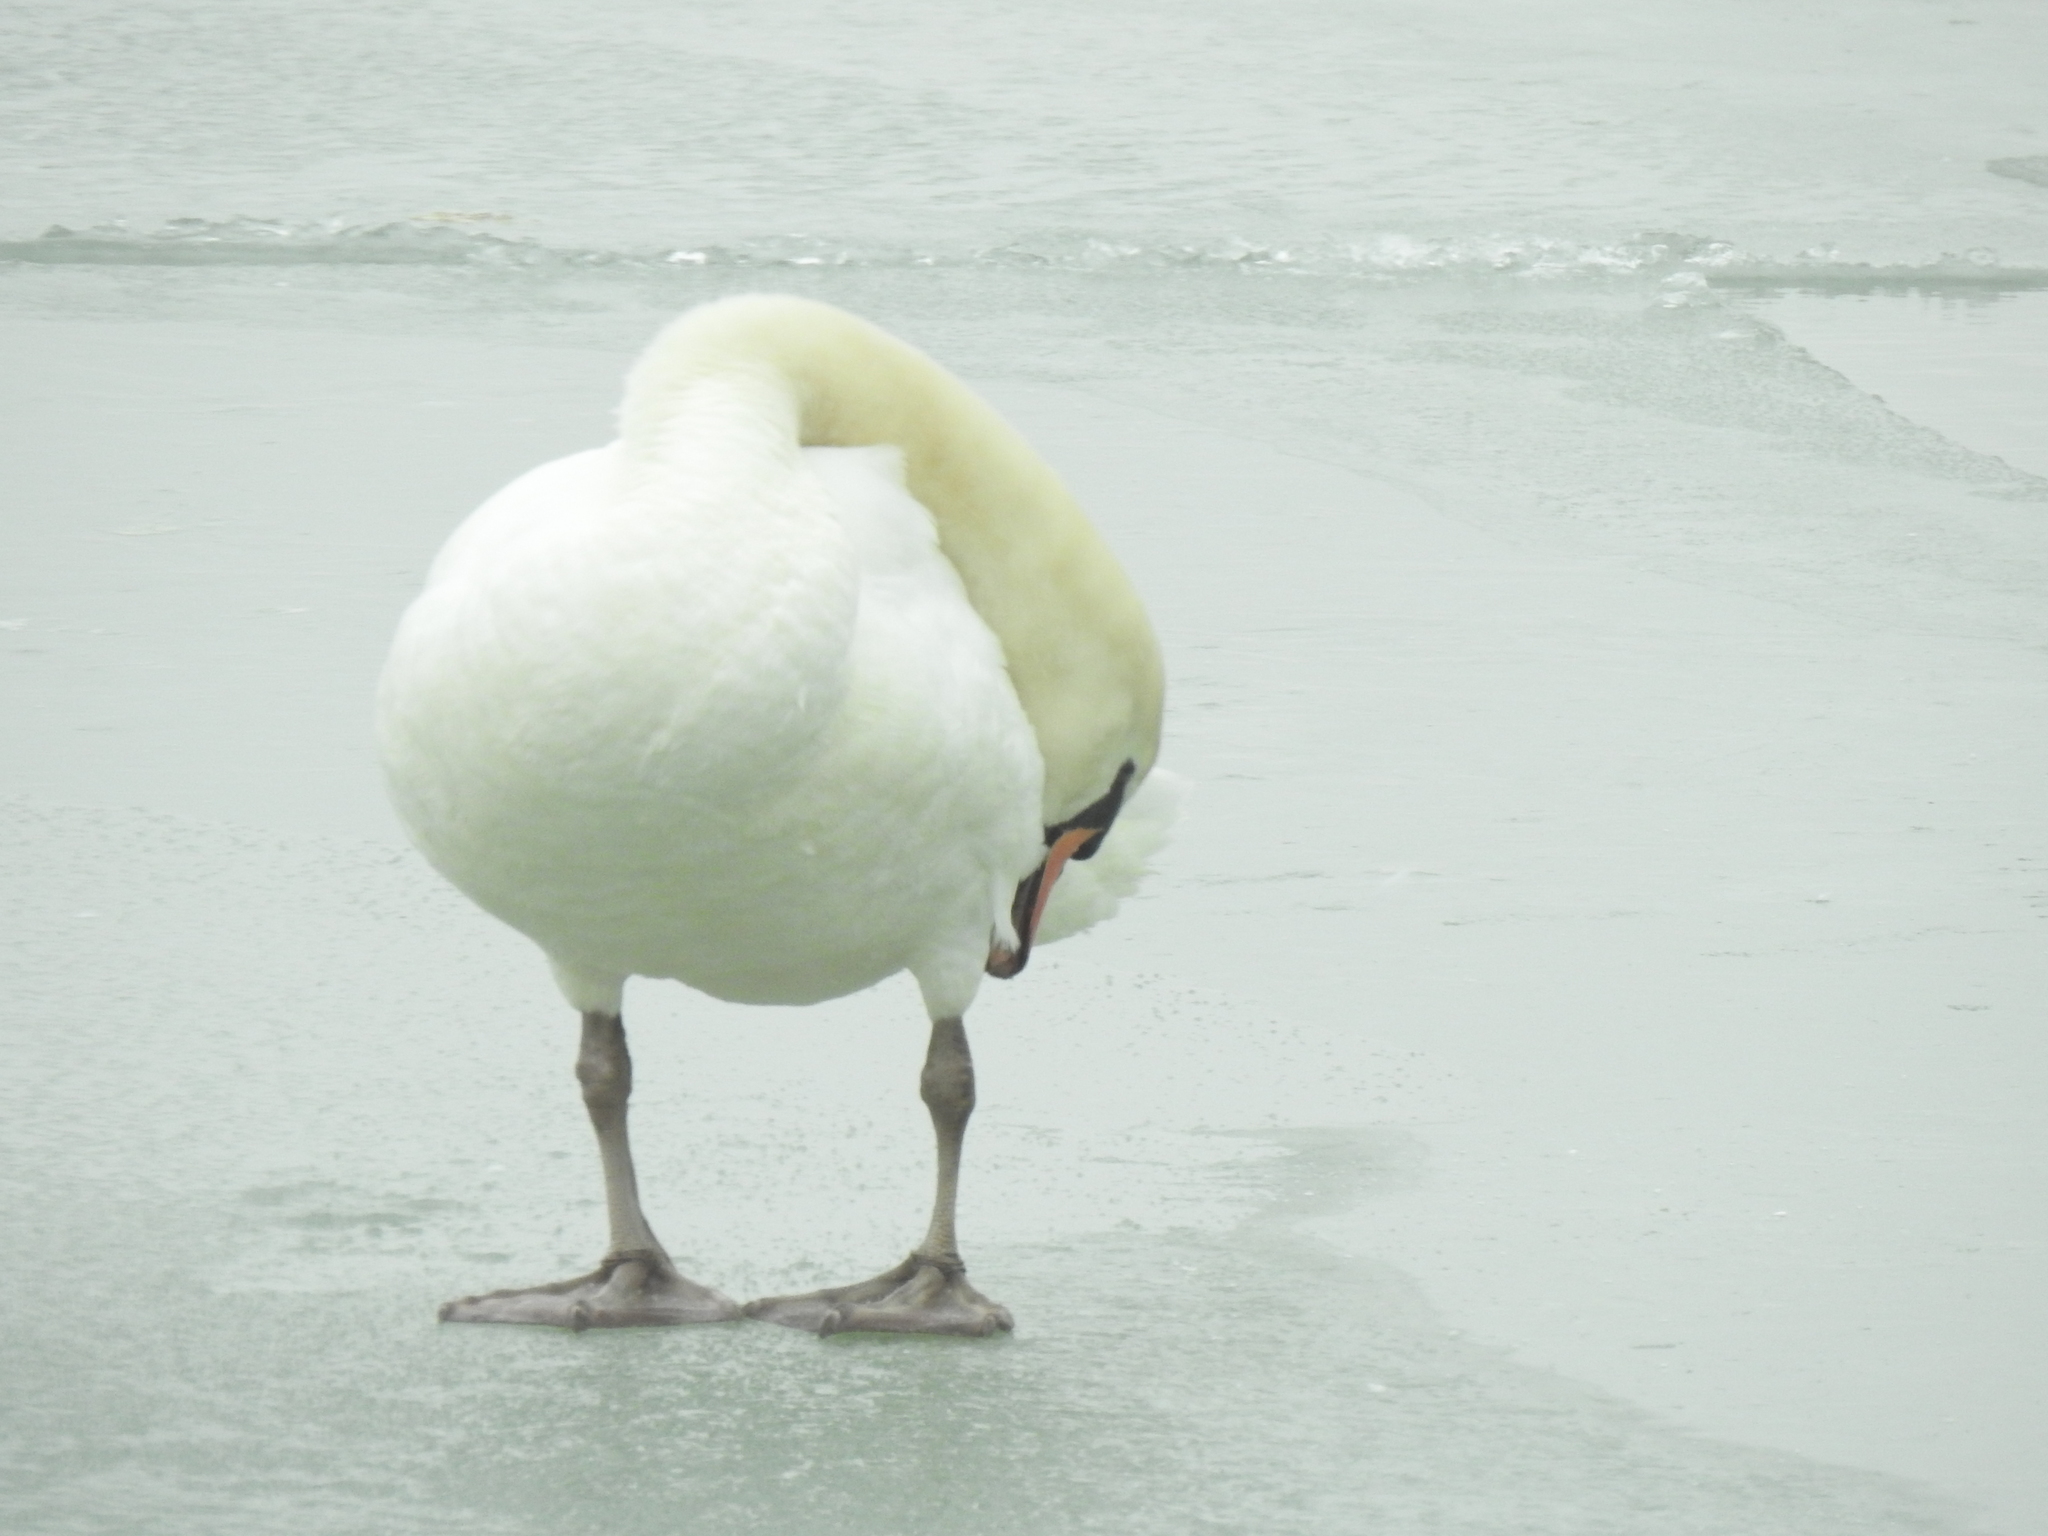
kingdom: Animalia
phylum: Chordata
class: Aves
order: Anseriformes
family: Anatidae
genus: Cygnus
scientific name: Cygnus olor
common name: Mute swan
